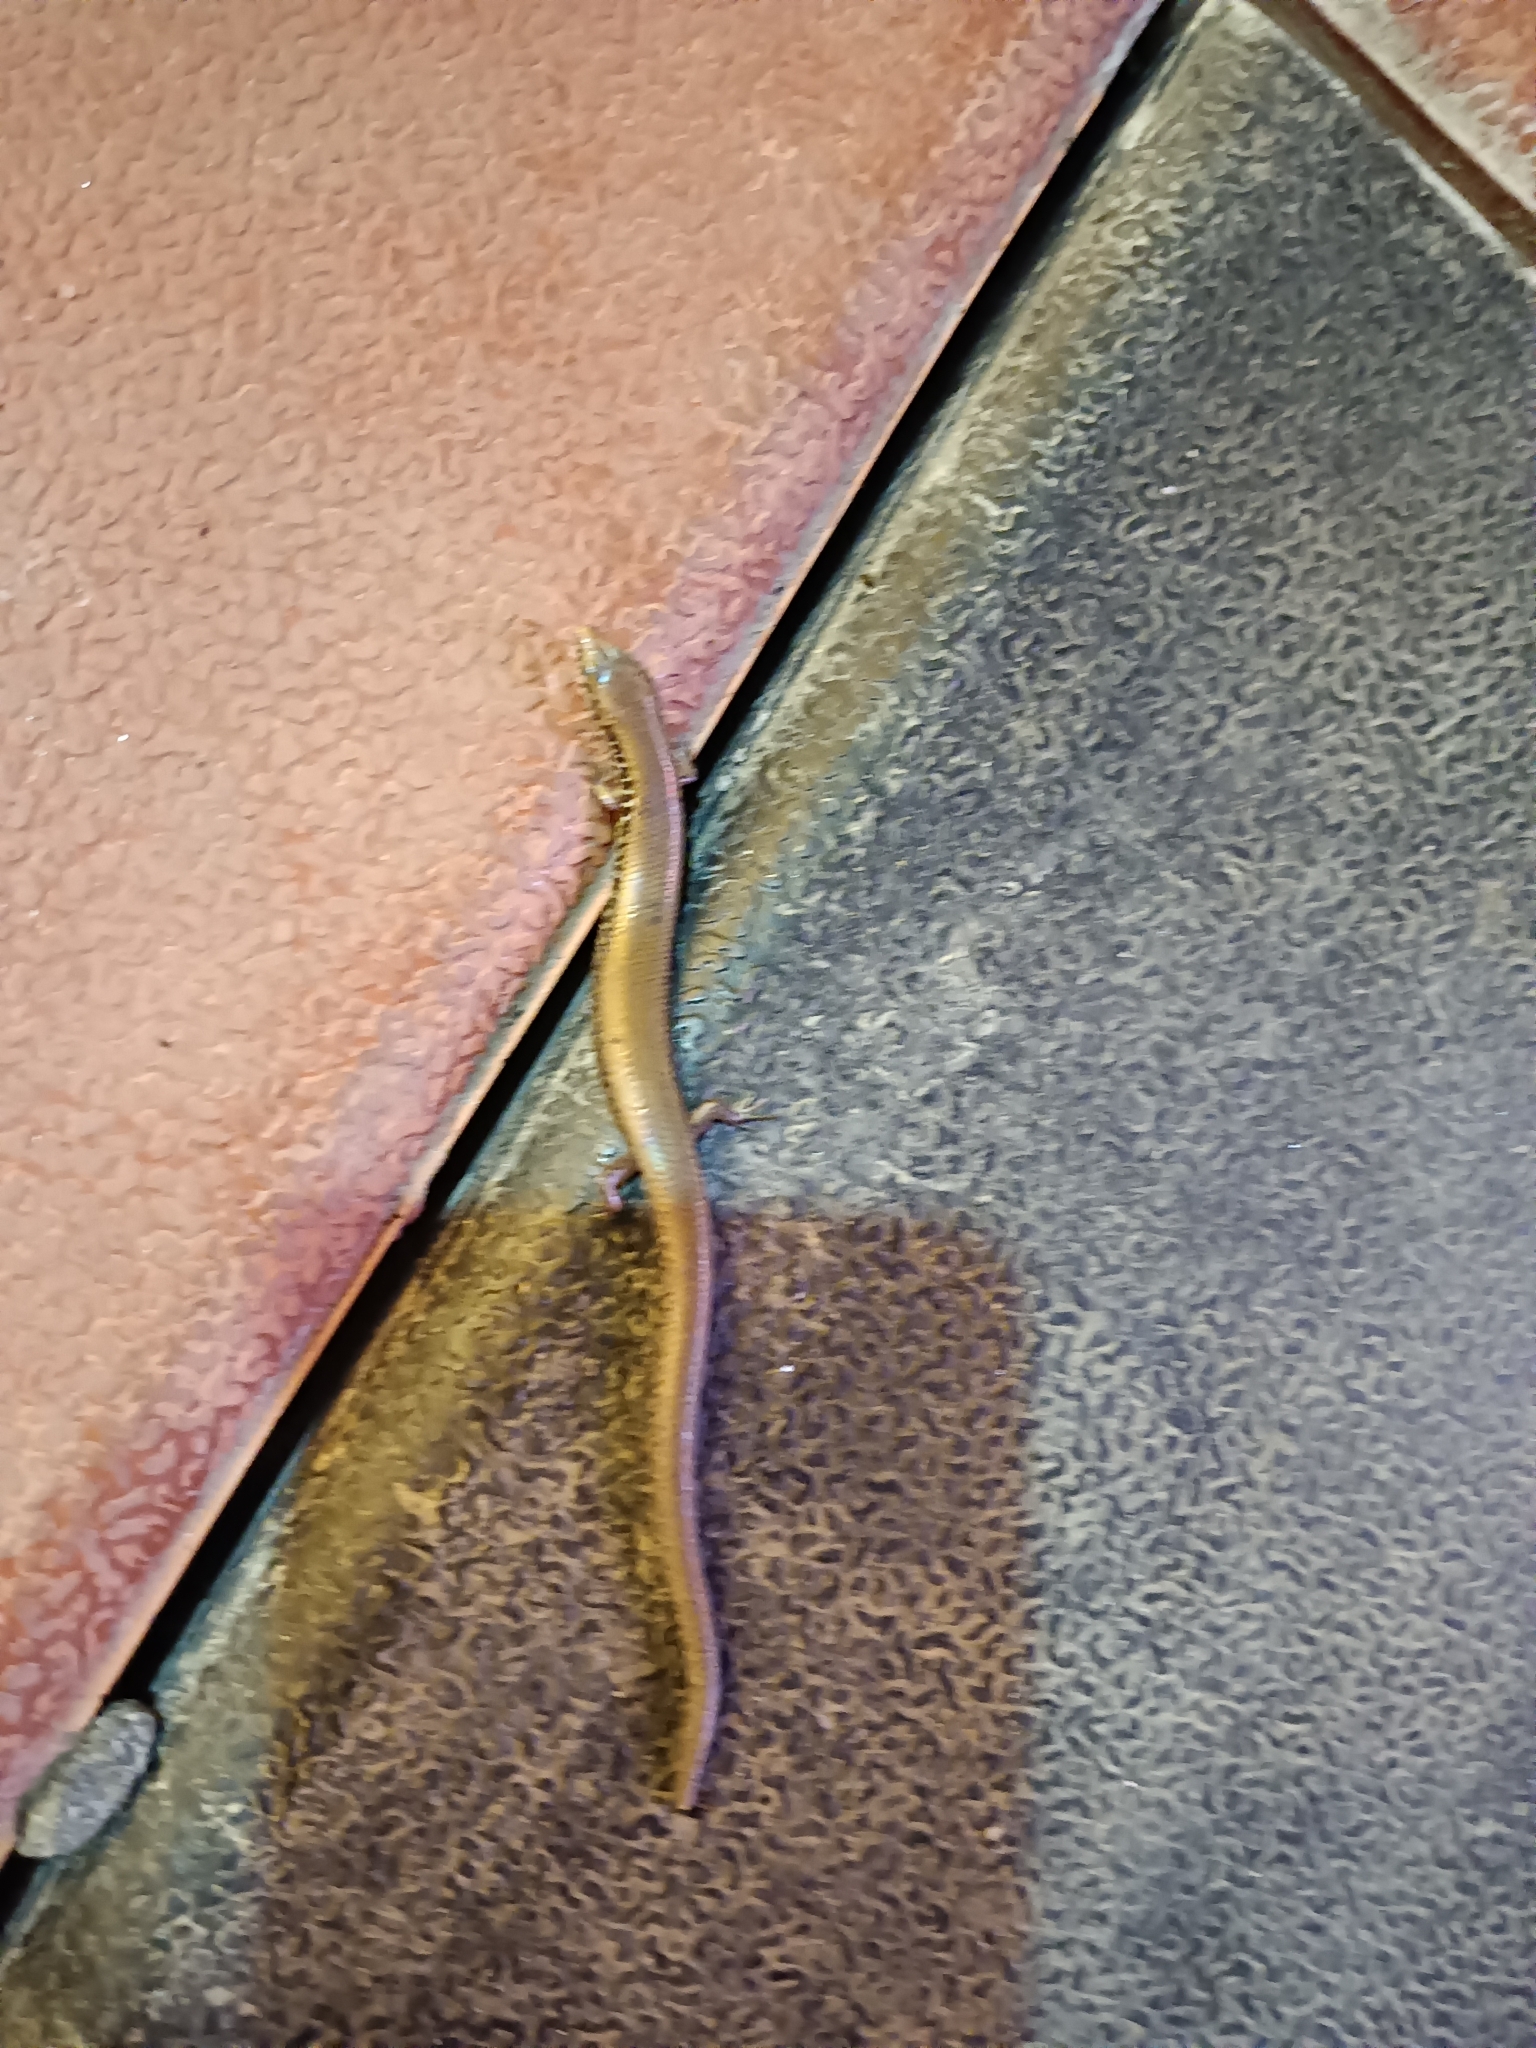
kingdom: Animalia
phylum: Chordata
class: Squamata
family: Scincidae
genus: Riopa
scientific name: Riopa albopunctata
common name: White-spotted supple skink
